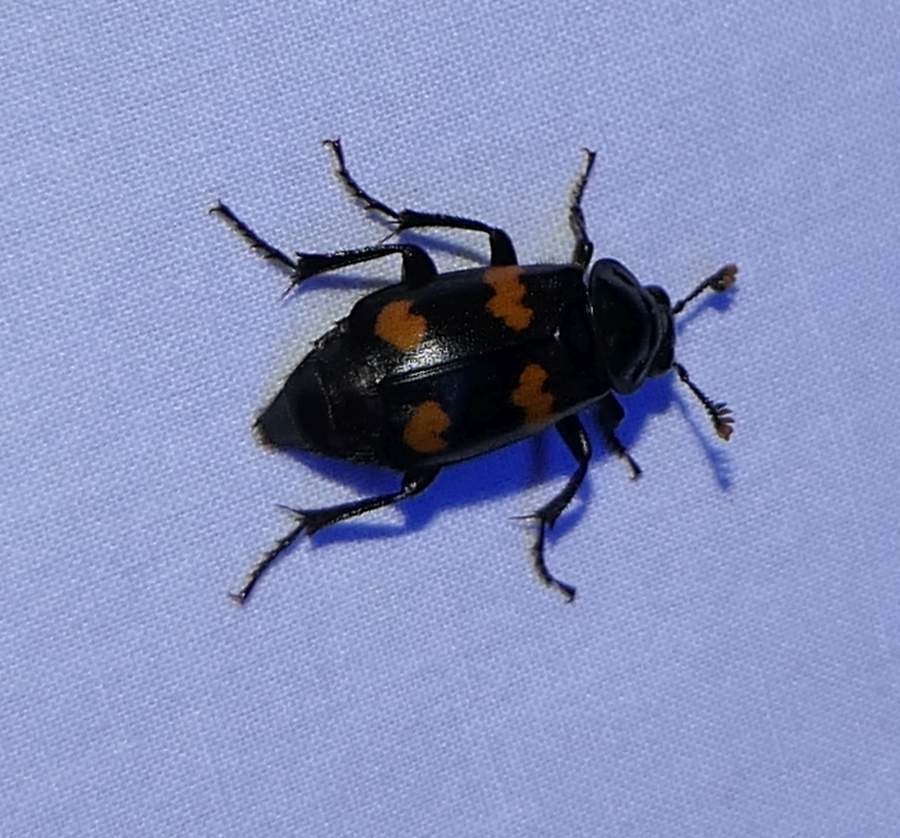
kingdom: Animalia
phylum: Arthropoda
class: Insecta
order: Coleoptera
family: Staphylinidae
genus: Nicrophorus
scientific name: Nicrophorus orbicollis
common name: Roundneck sexton beetle
